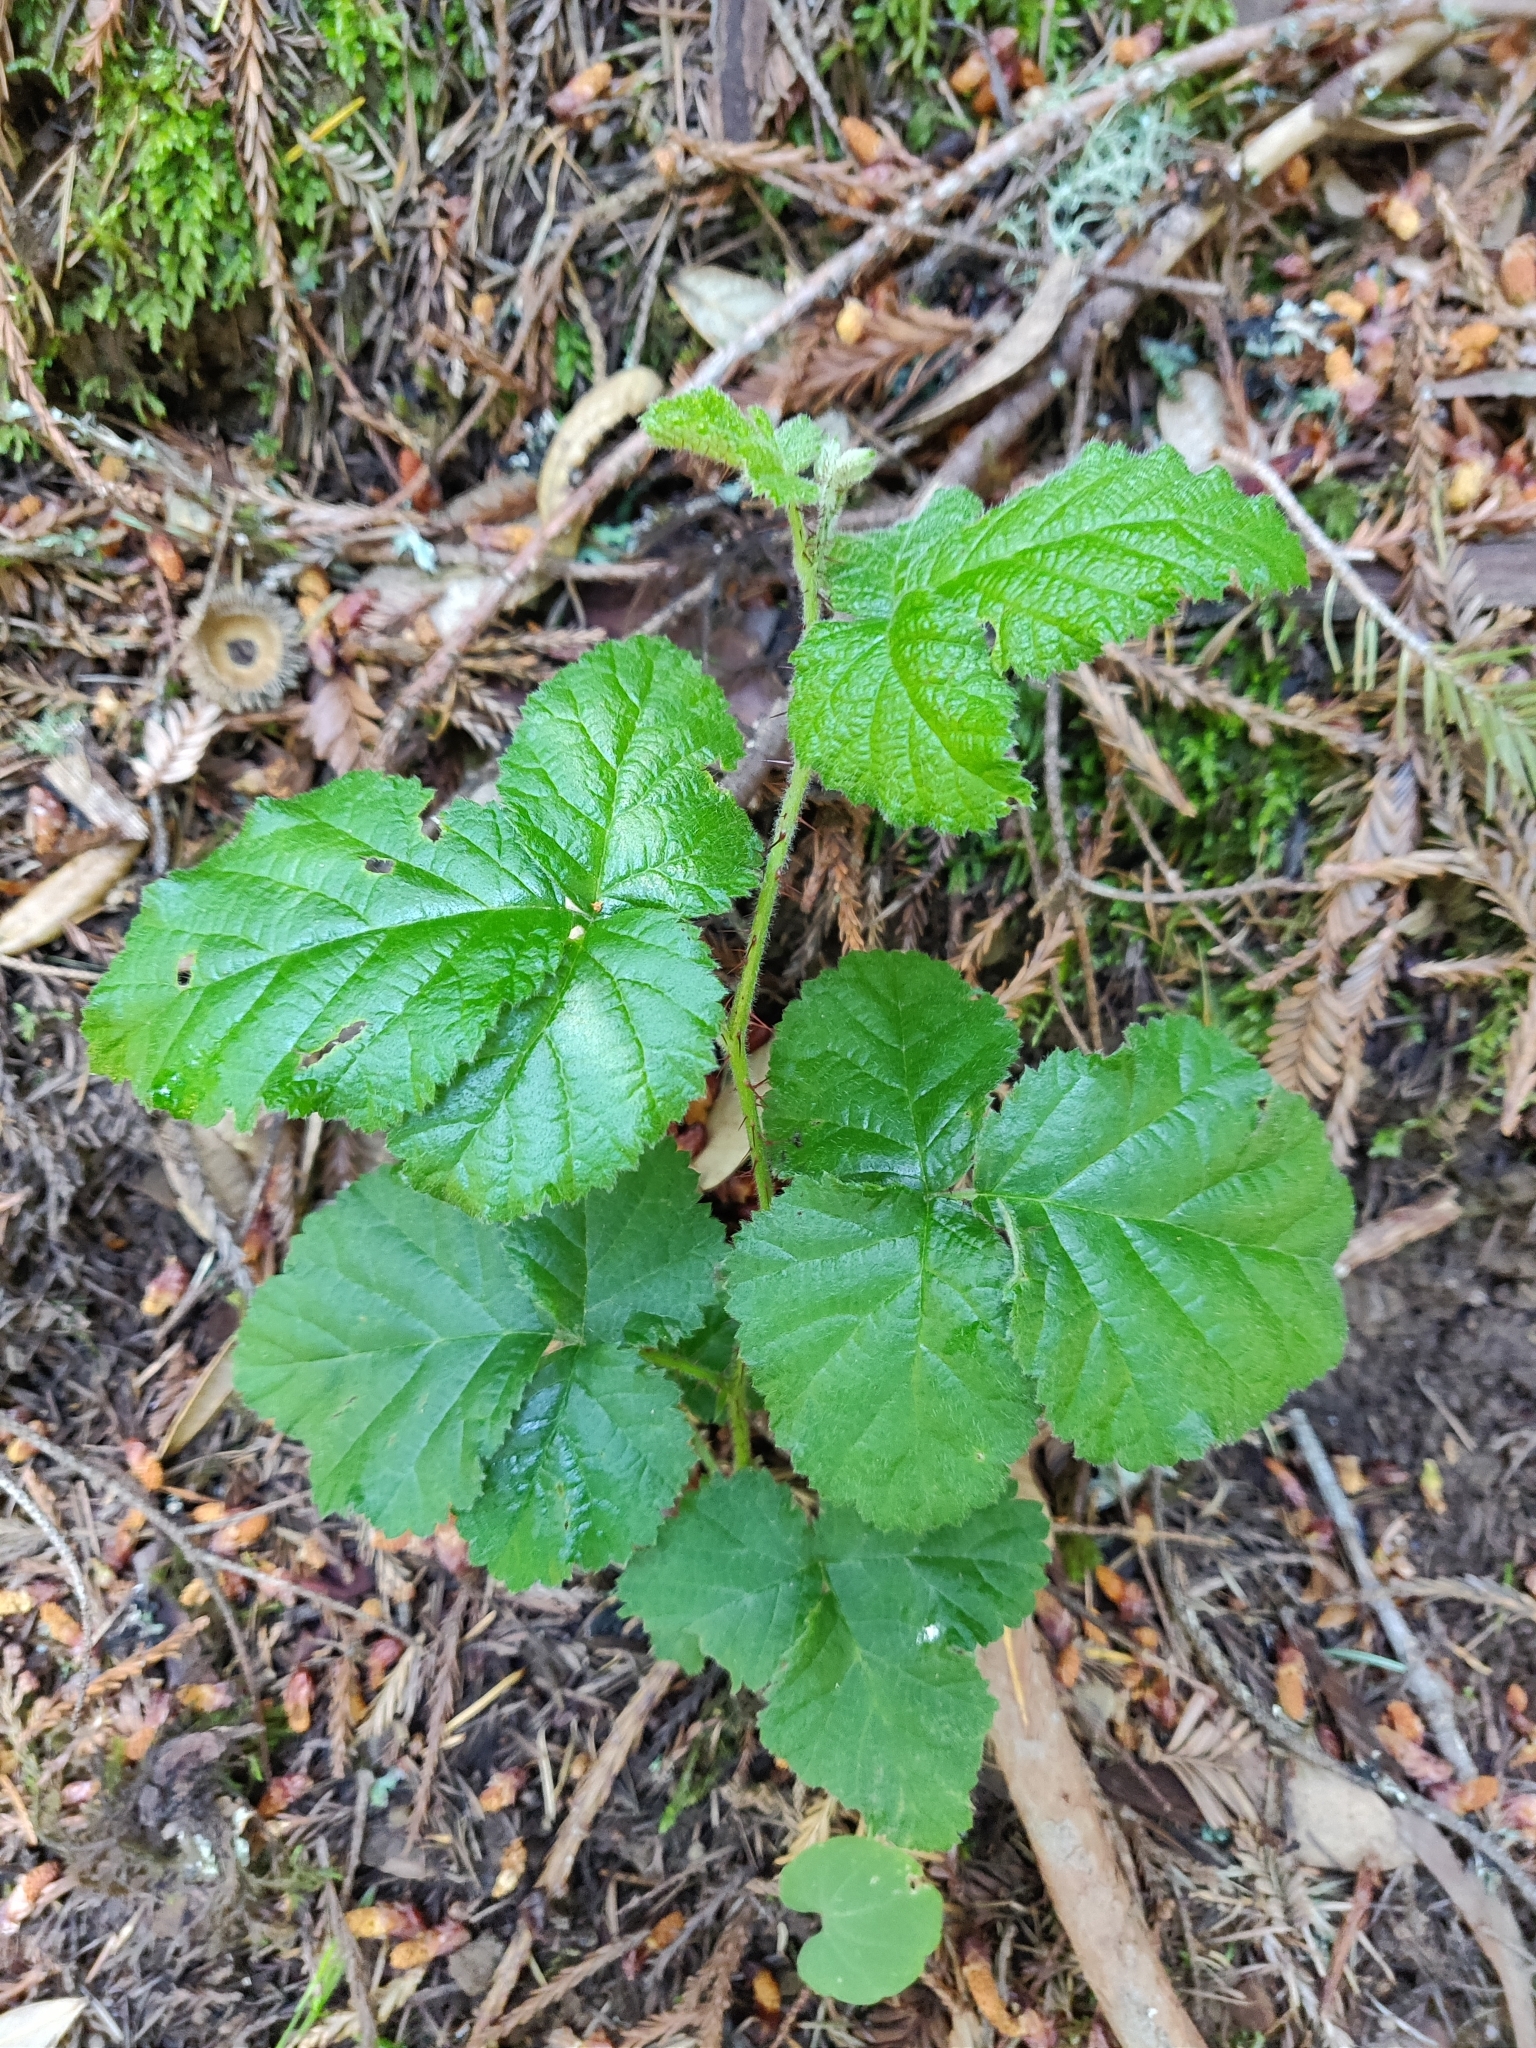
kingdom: Plantae
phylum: Tracheophyta
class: Magnoliopsida
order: Rosales
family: Rosaceae
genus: Rubus
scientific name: Rubus ursinus
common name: Pacific blackberry
